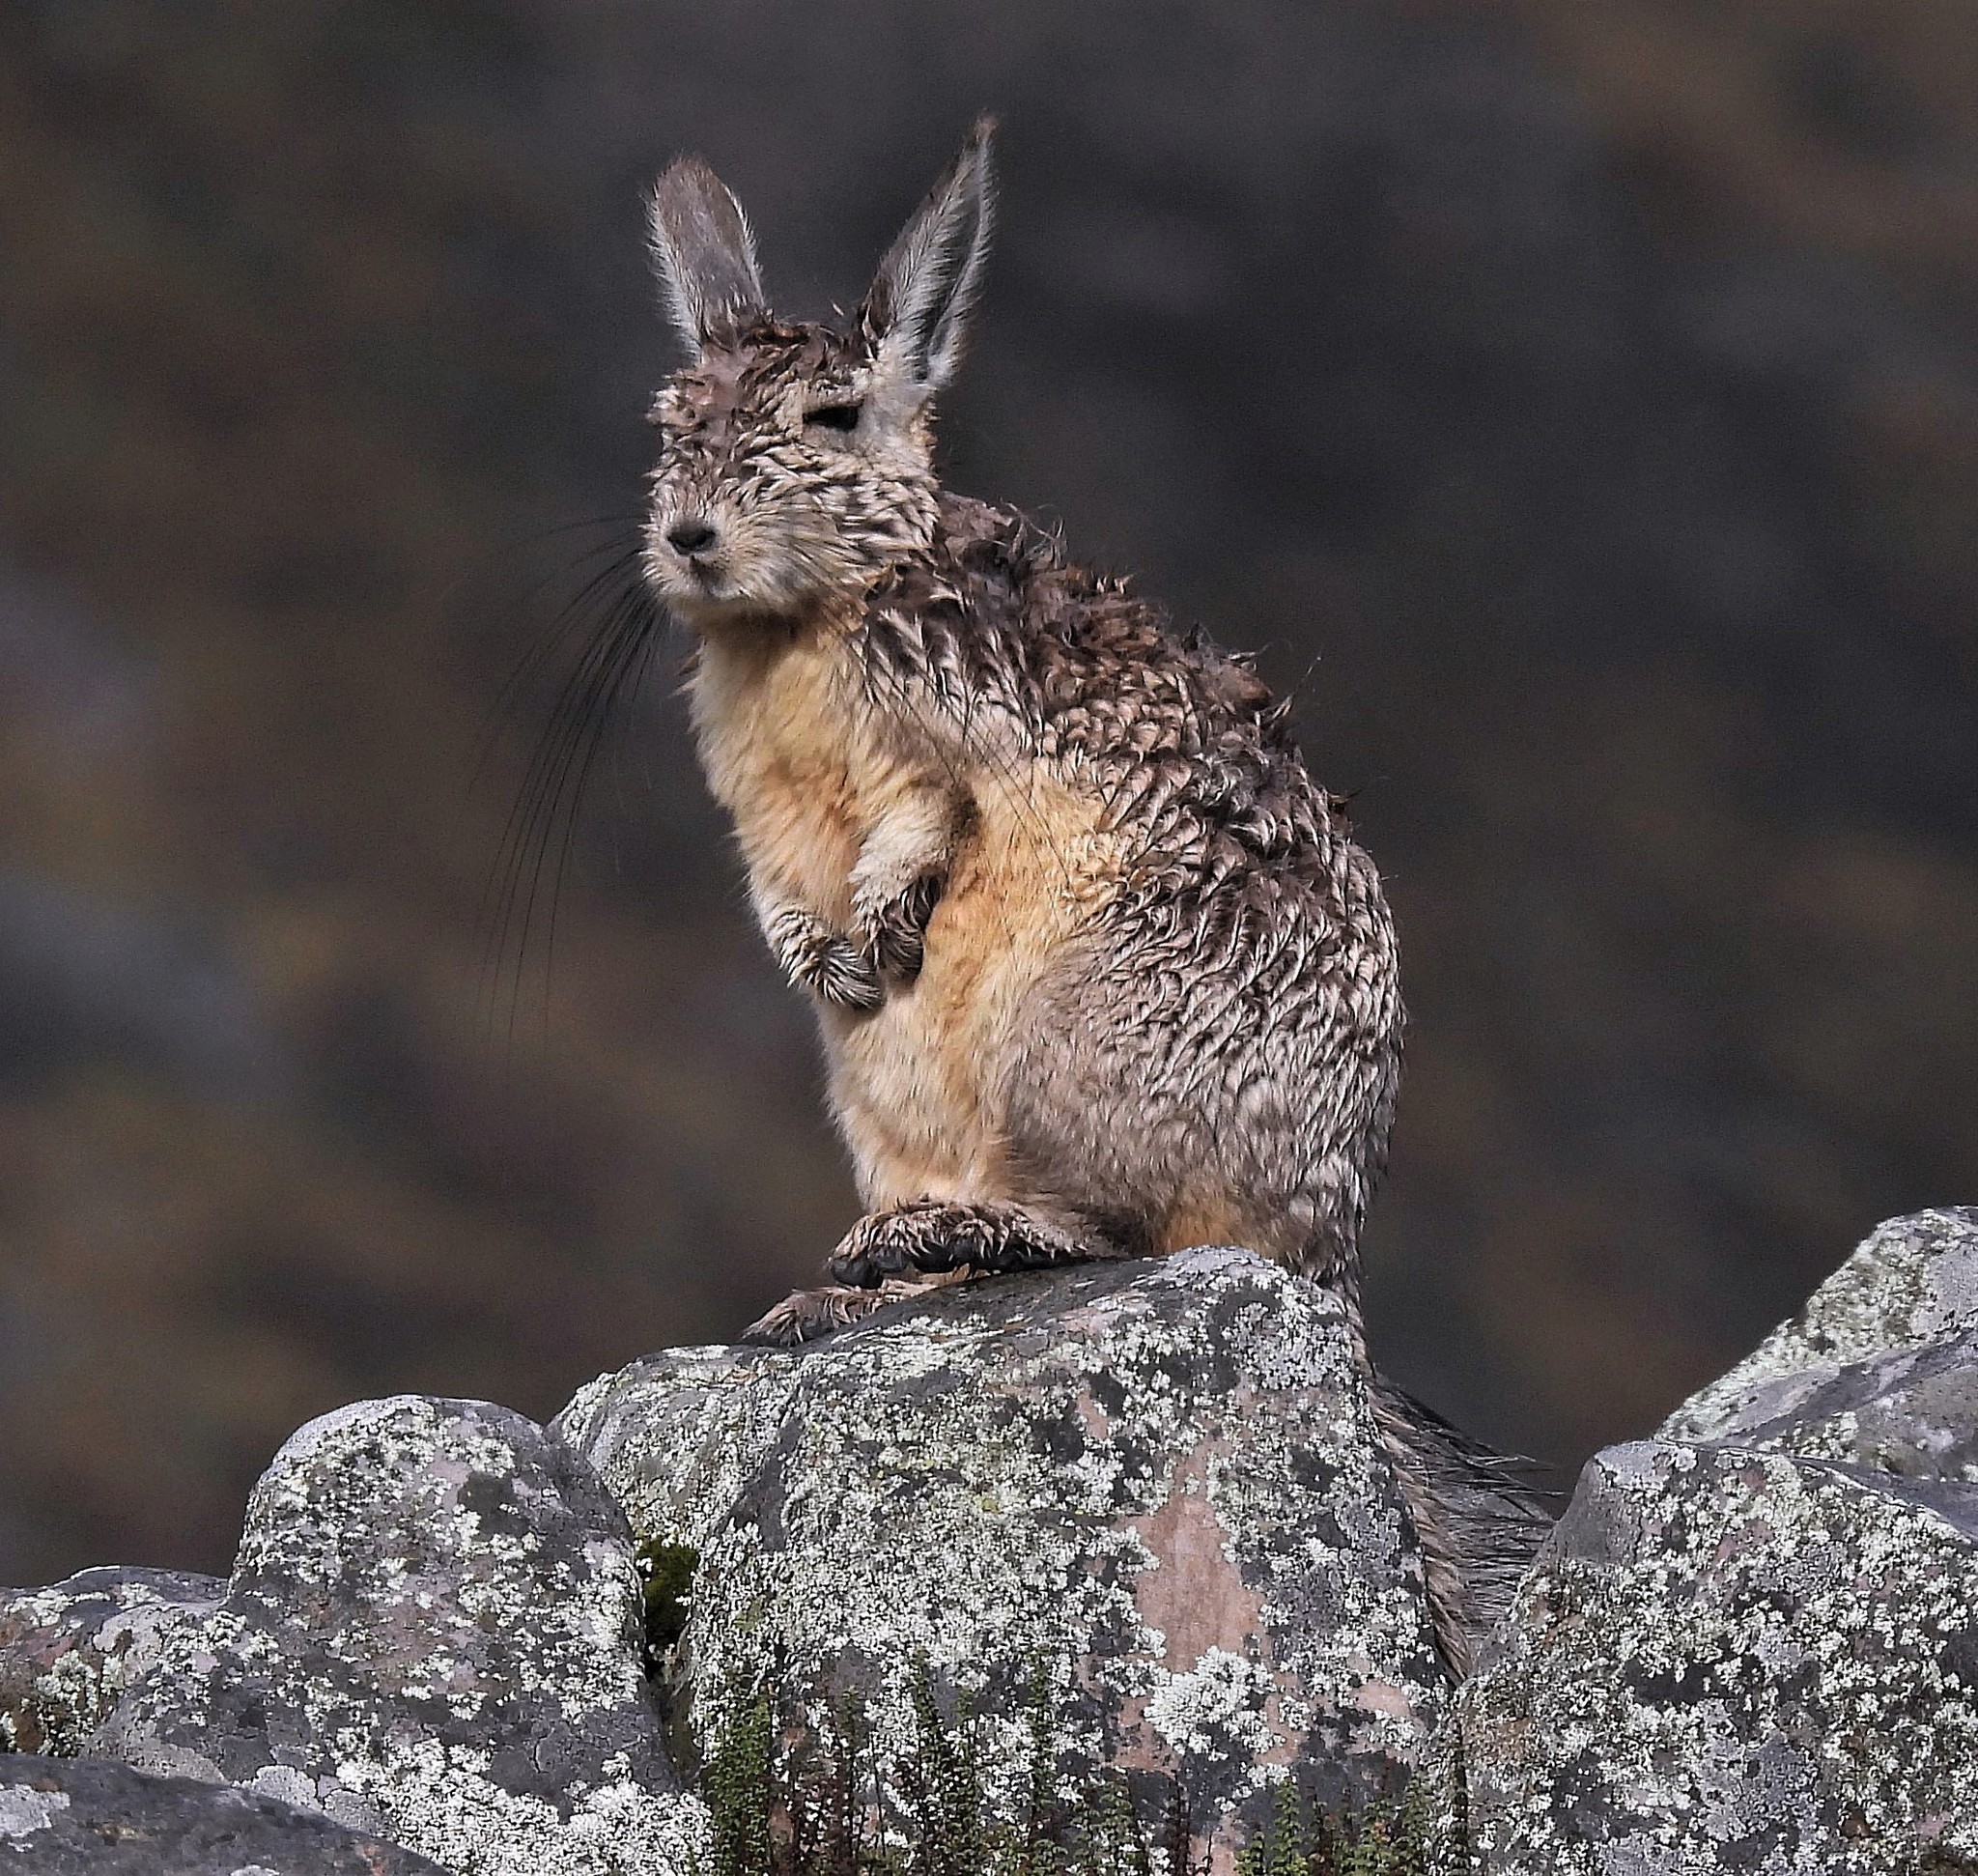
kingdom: Animalia
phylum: Chordata
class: Mammalia
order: Rodentia
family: Chinchillidae
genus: Lagidium
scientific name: Lagidium viscacia
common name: Southern viscacha
